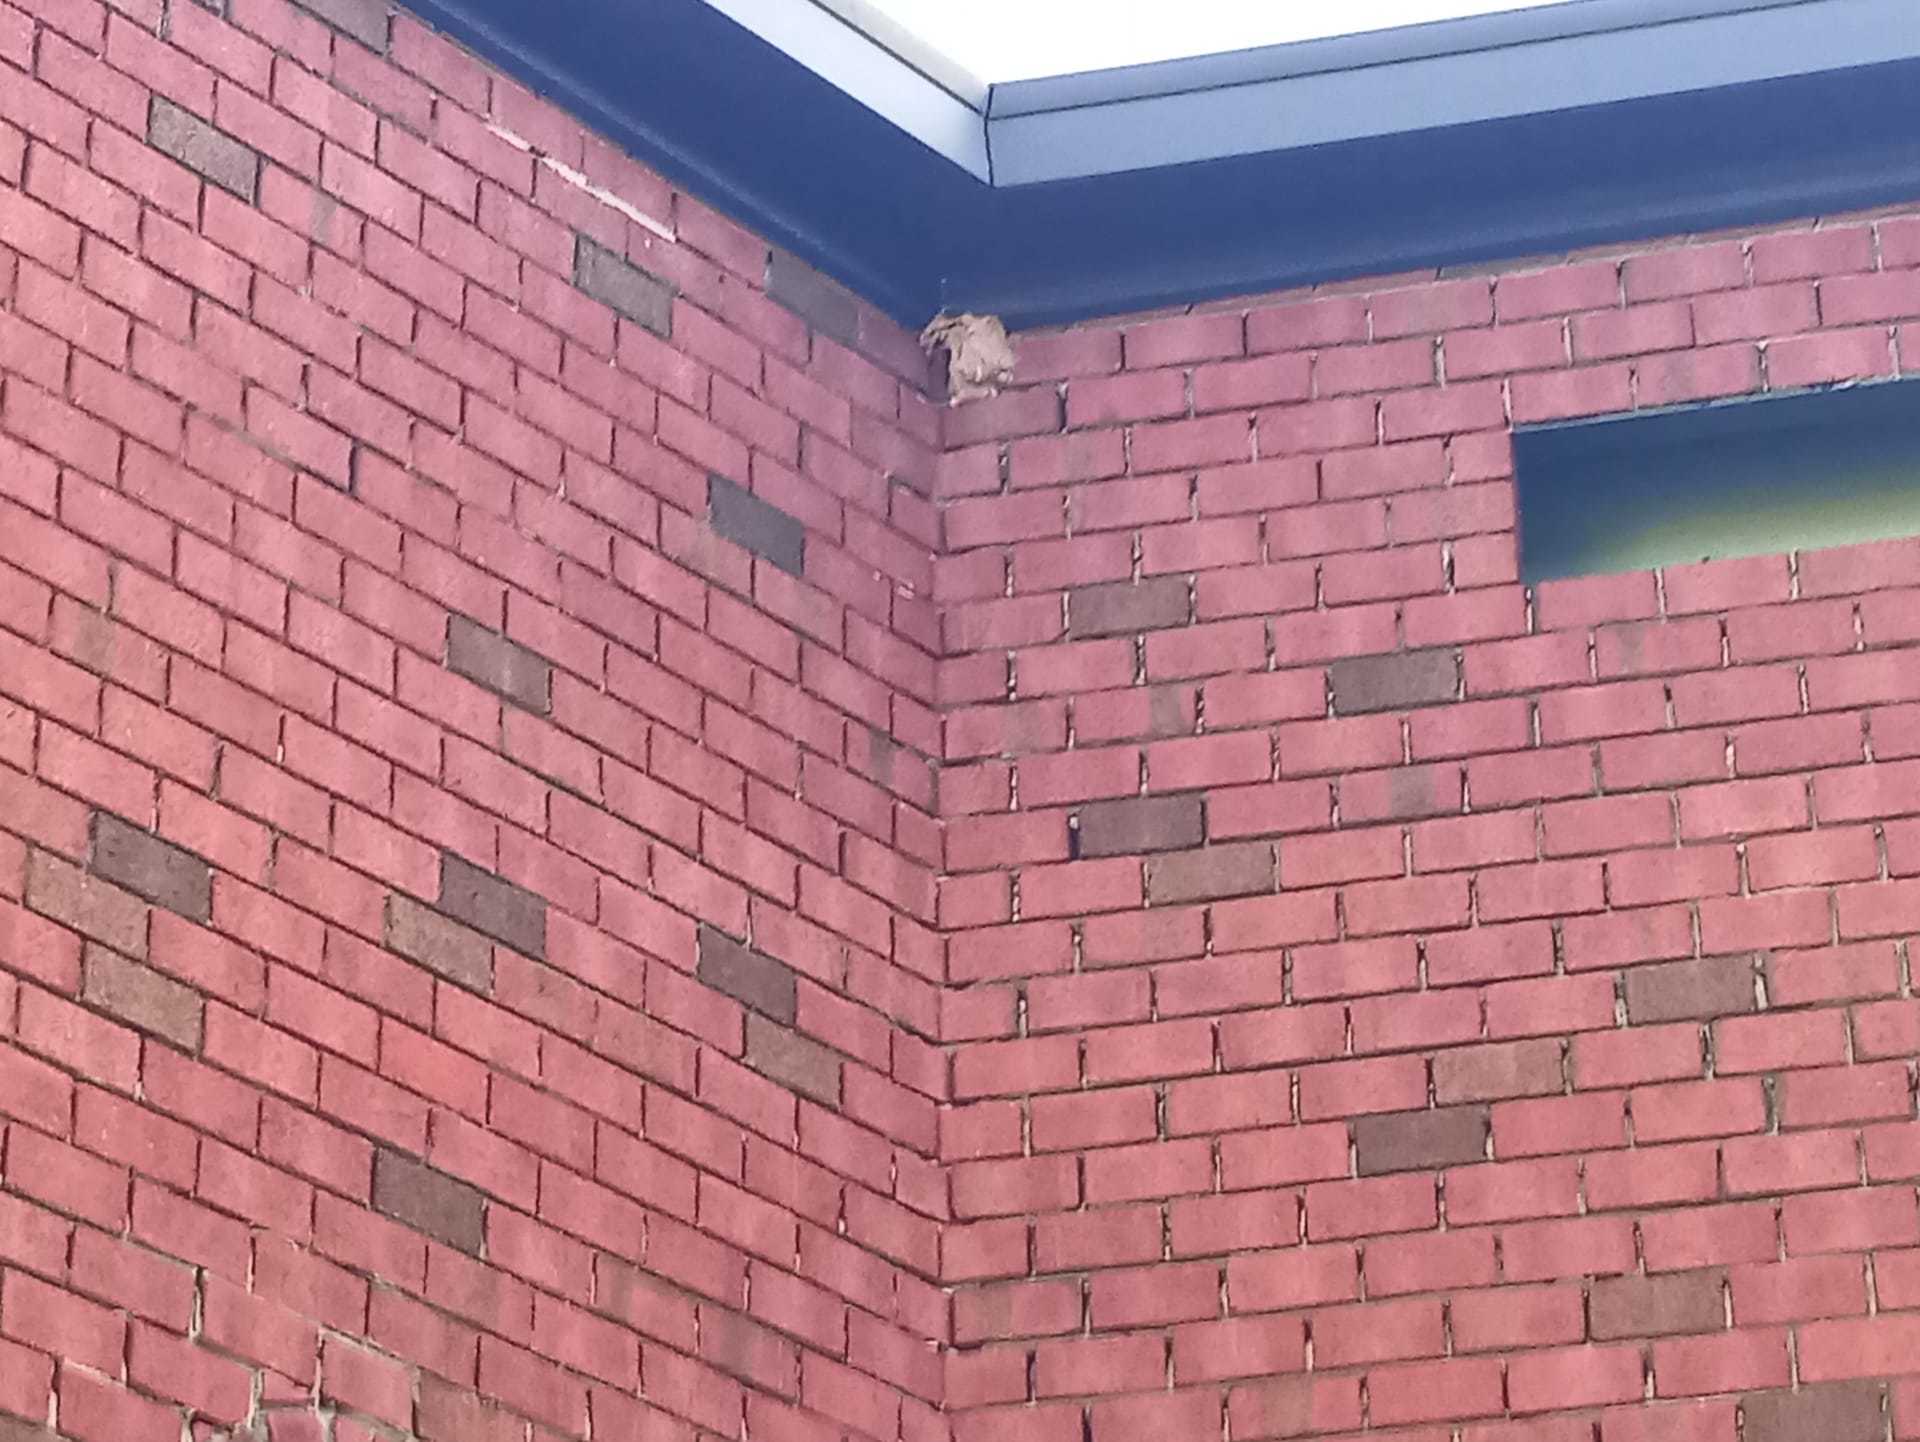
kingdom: Animalia
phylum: Arthropoda
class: Insecta
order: Hymenoptera
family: Vespidae
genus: Vespa
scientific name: Vespa velutina
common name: Asian hornet
